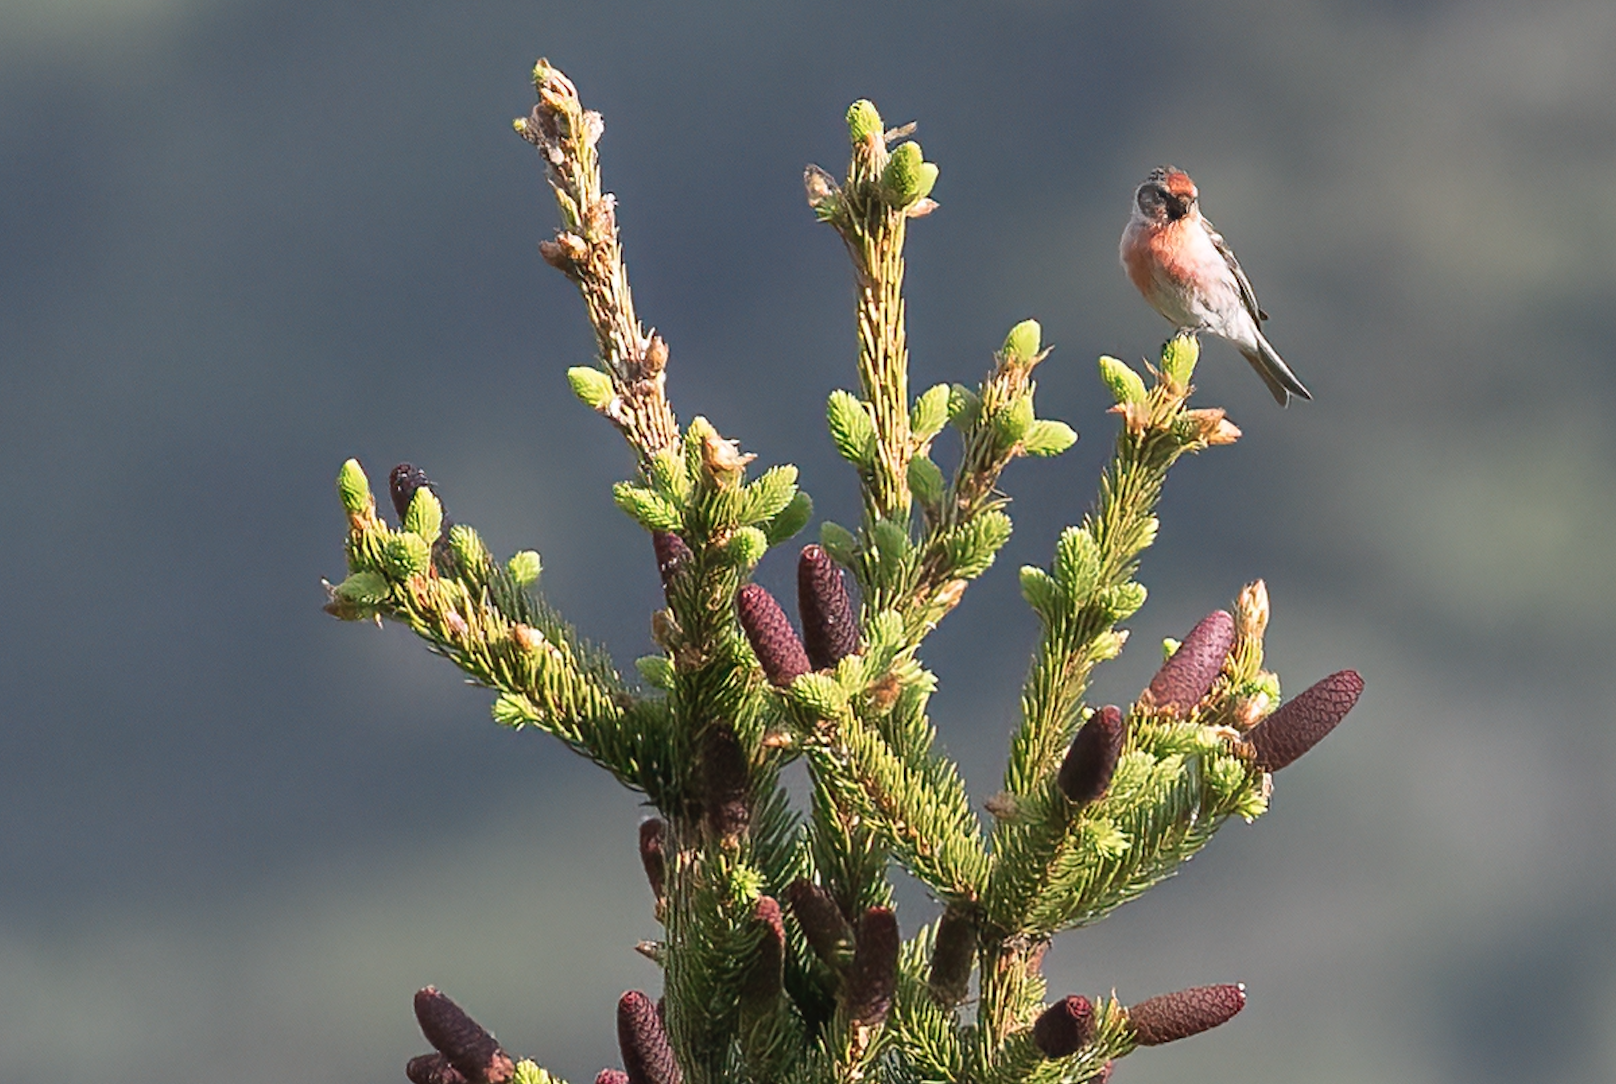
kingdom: Animalia
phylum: Chordata
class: Aves
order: Passeriformes
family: Fringillidae
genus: Acanthis
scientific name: Acanthis flammea
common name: Common redpoll
